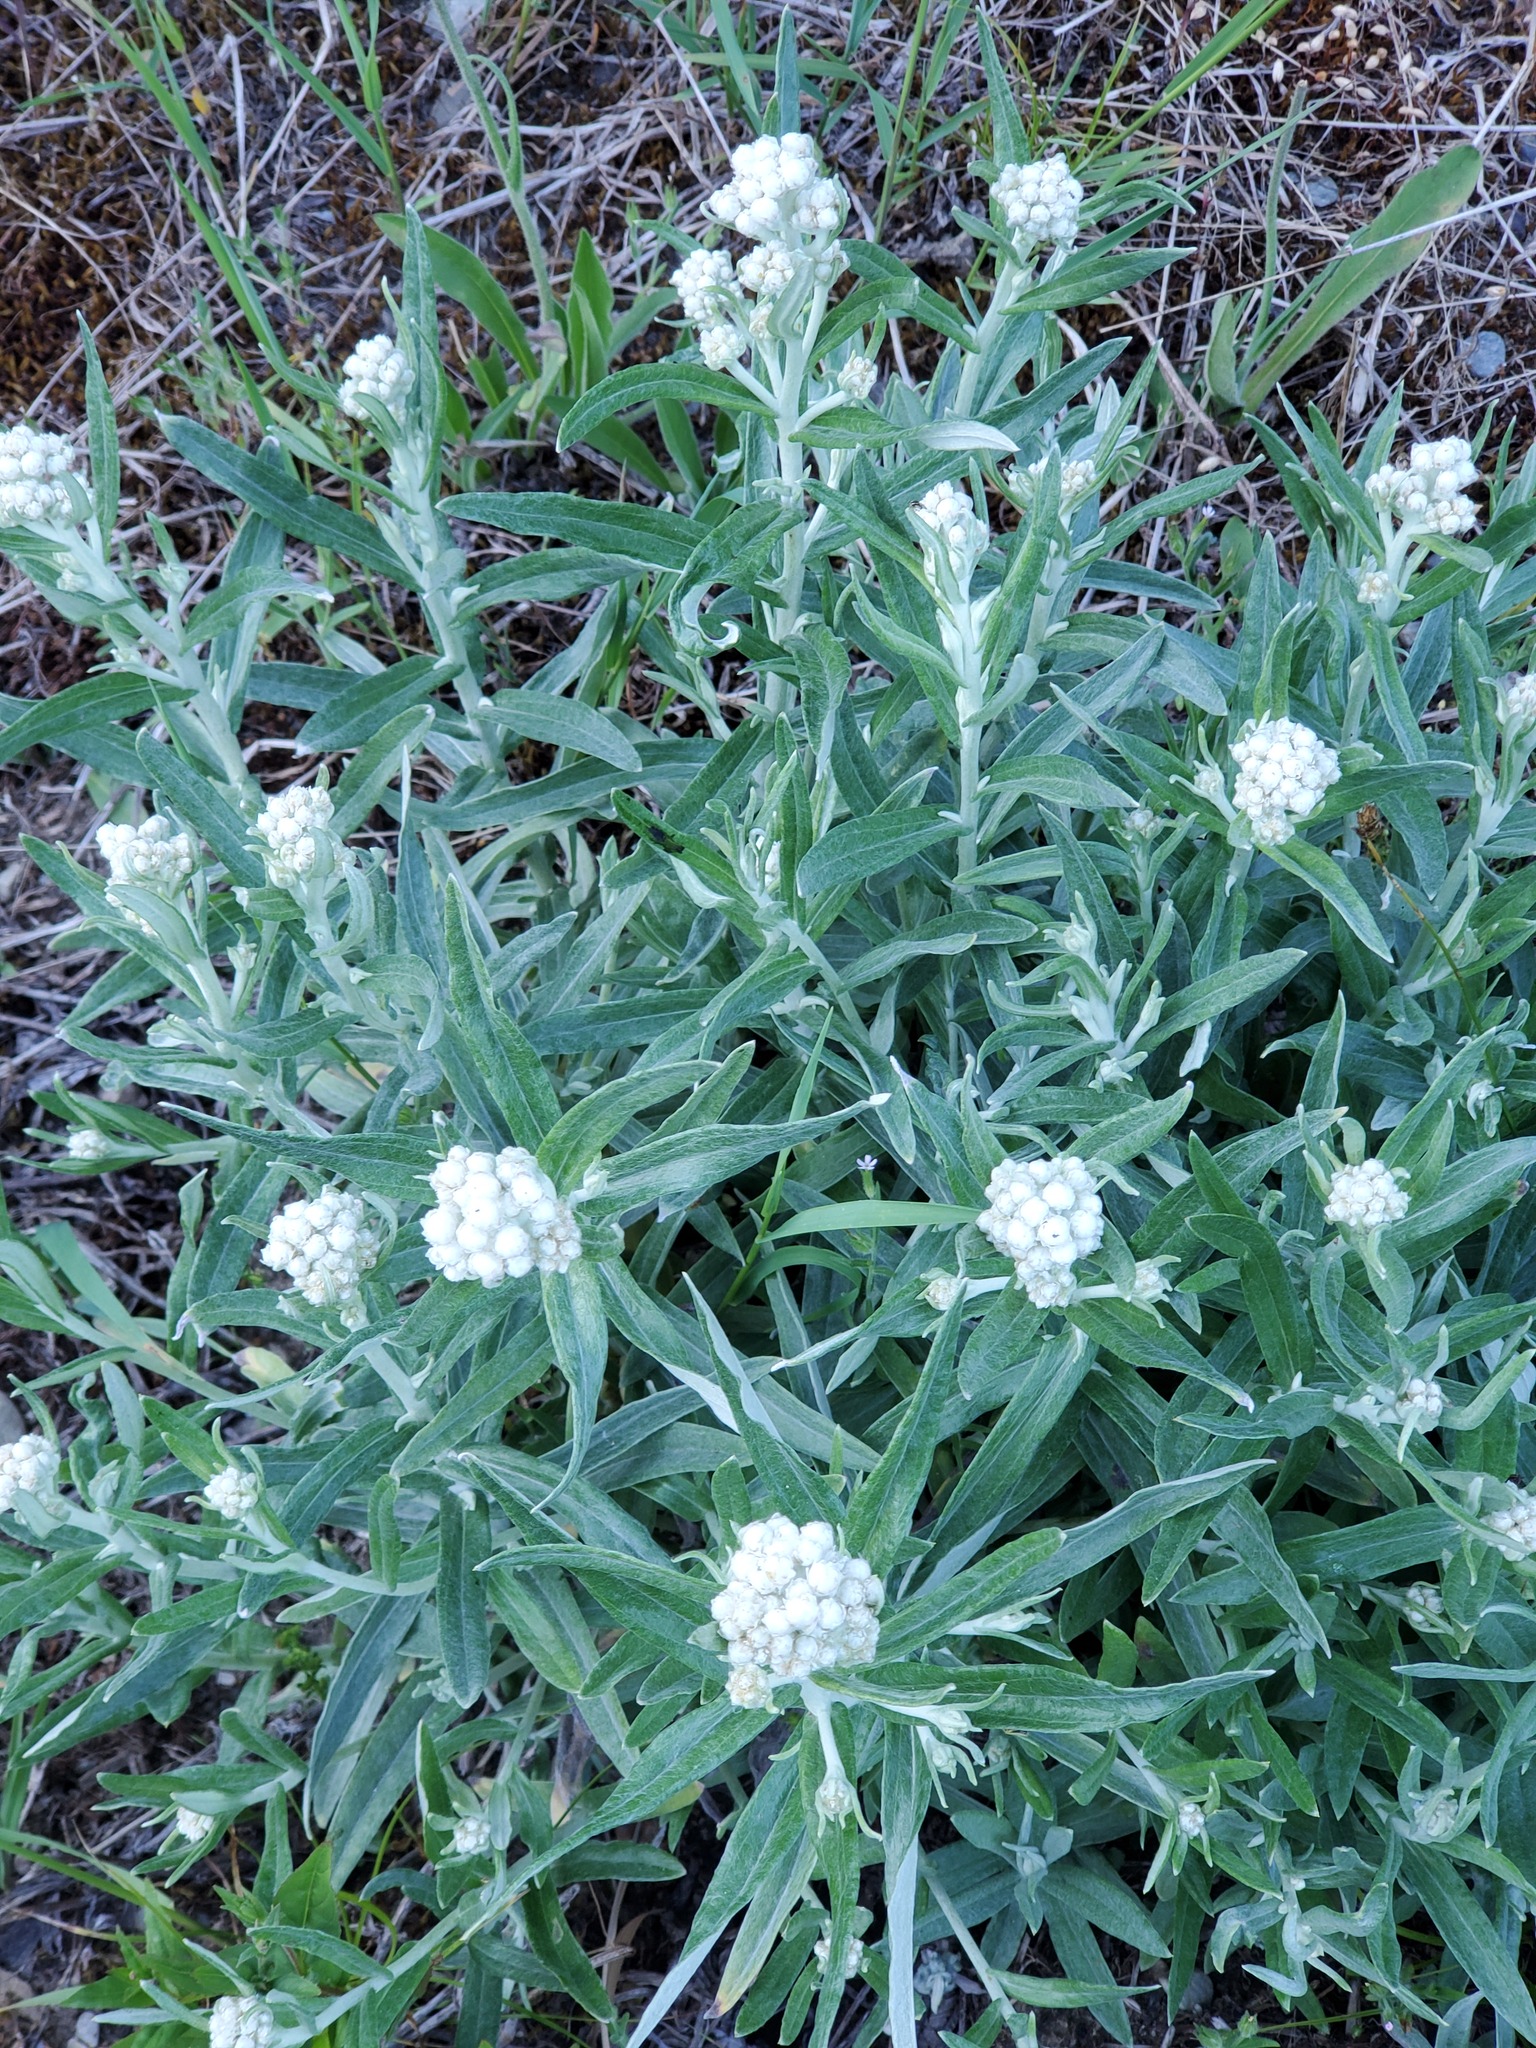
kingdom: Plantae
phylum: Tracheophyta
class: Magnoliopsida
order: Asterales
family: Asteraceae
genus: Anaphalis
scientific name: Anaphalis margaritacea
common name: Pearly everlasting
